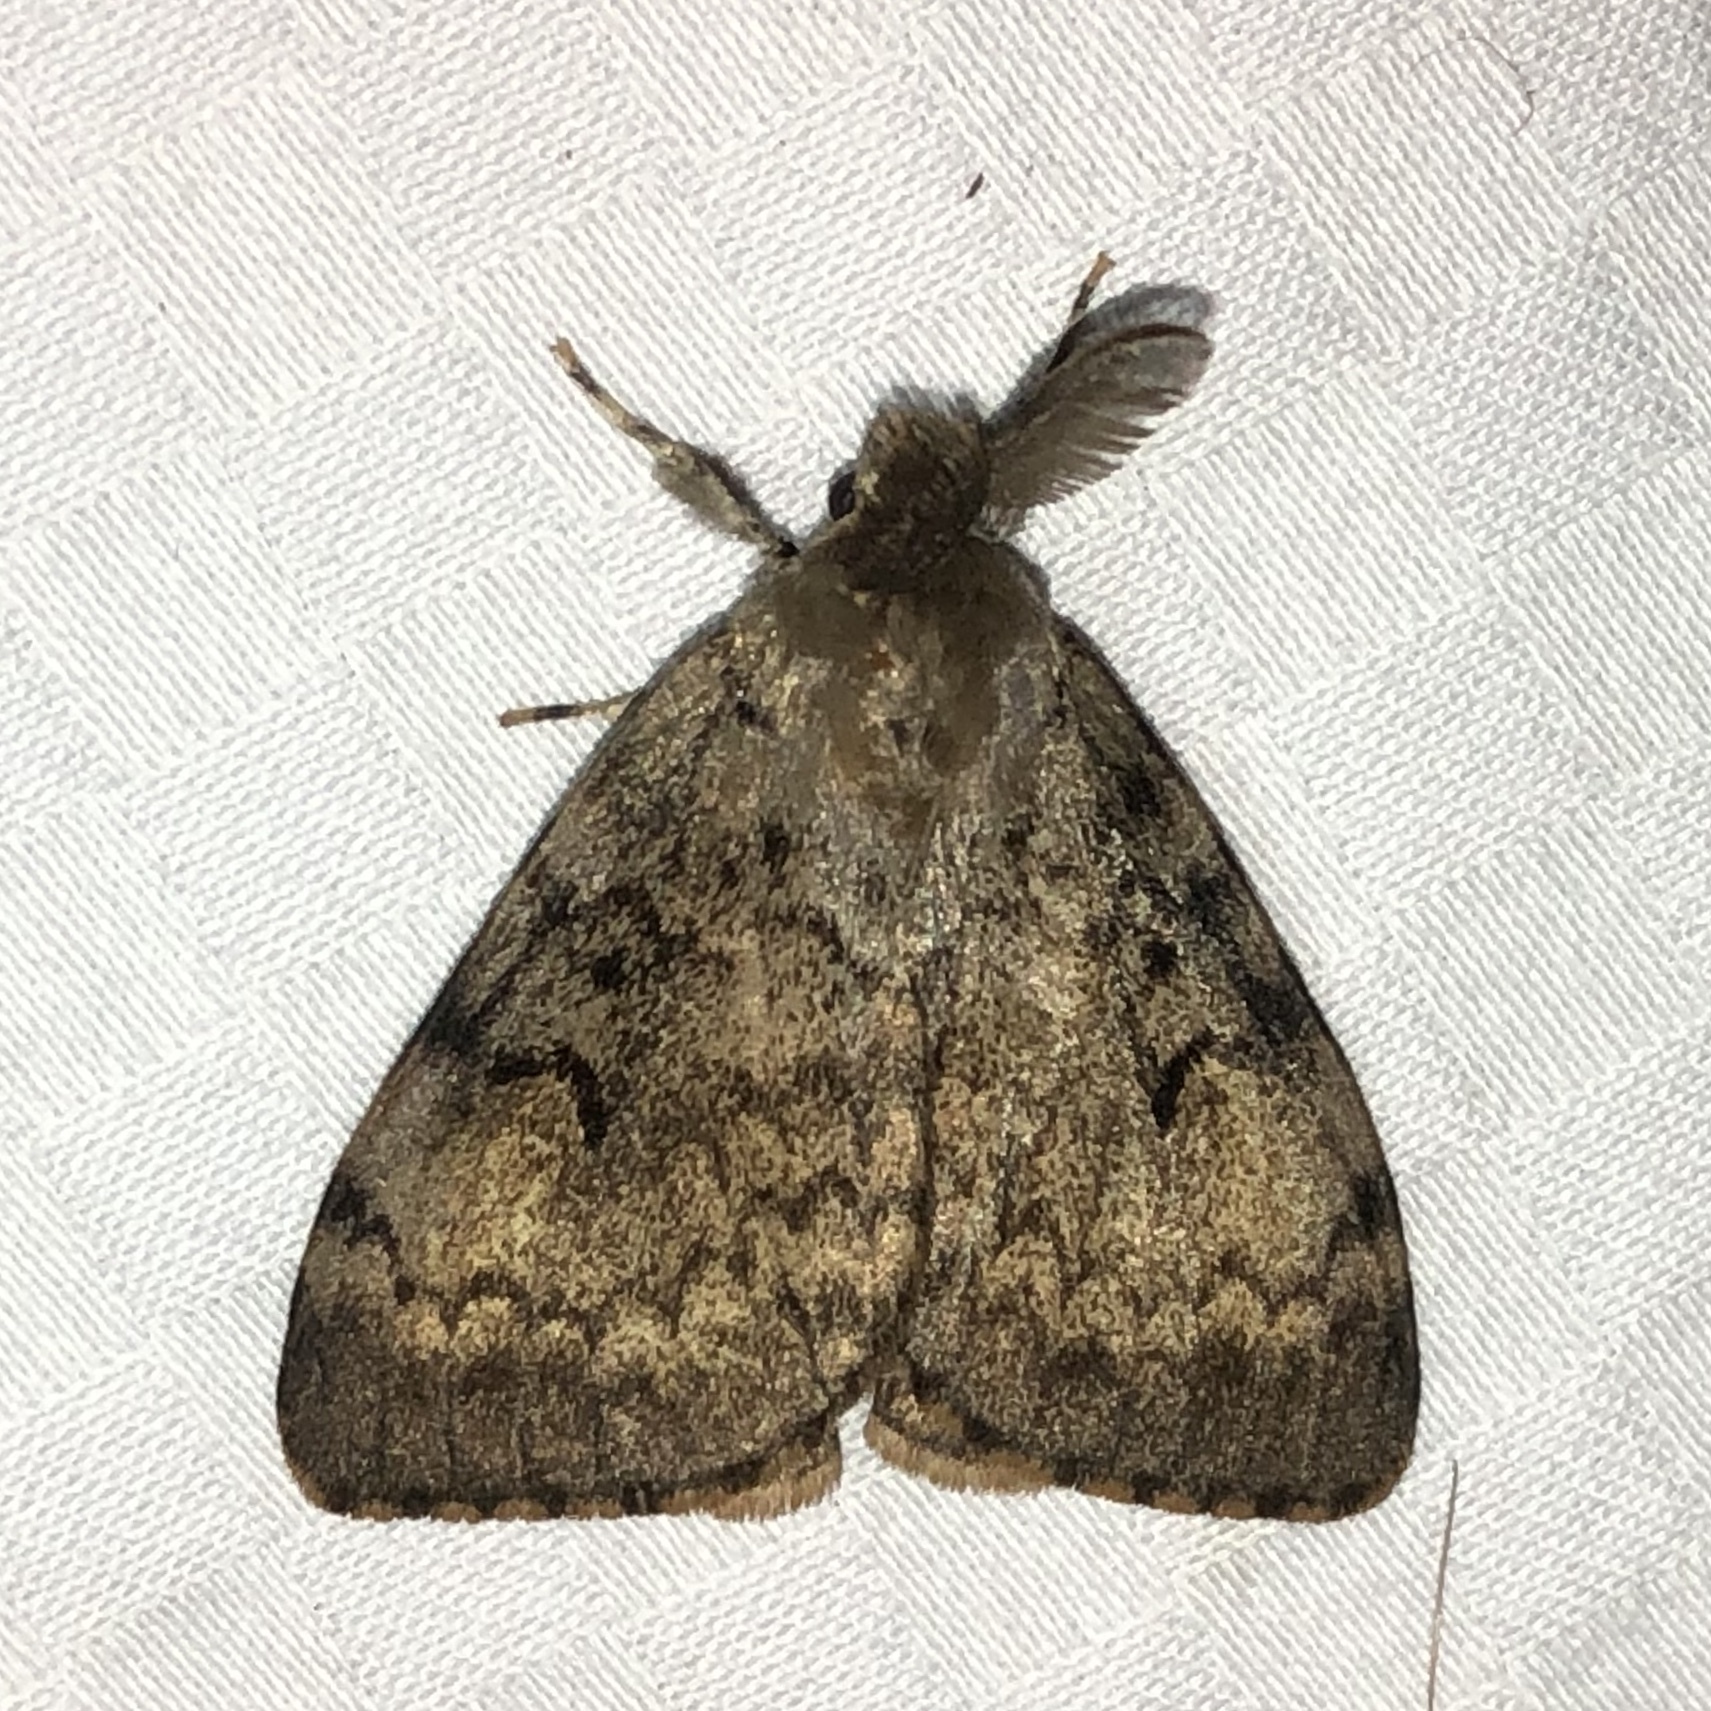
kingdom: Animalia
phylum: Arthropoda
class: Insecta
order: Lepidoptera
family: Erebidae
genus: Lymantria
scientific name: Lymantria dispar
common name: Gypsy moth
